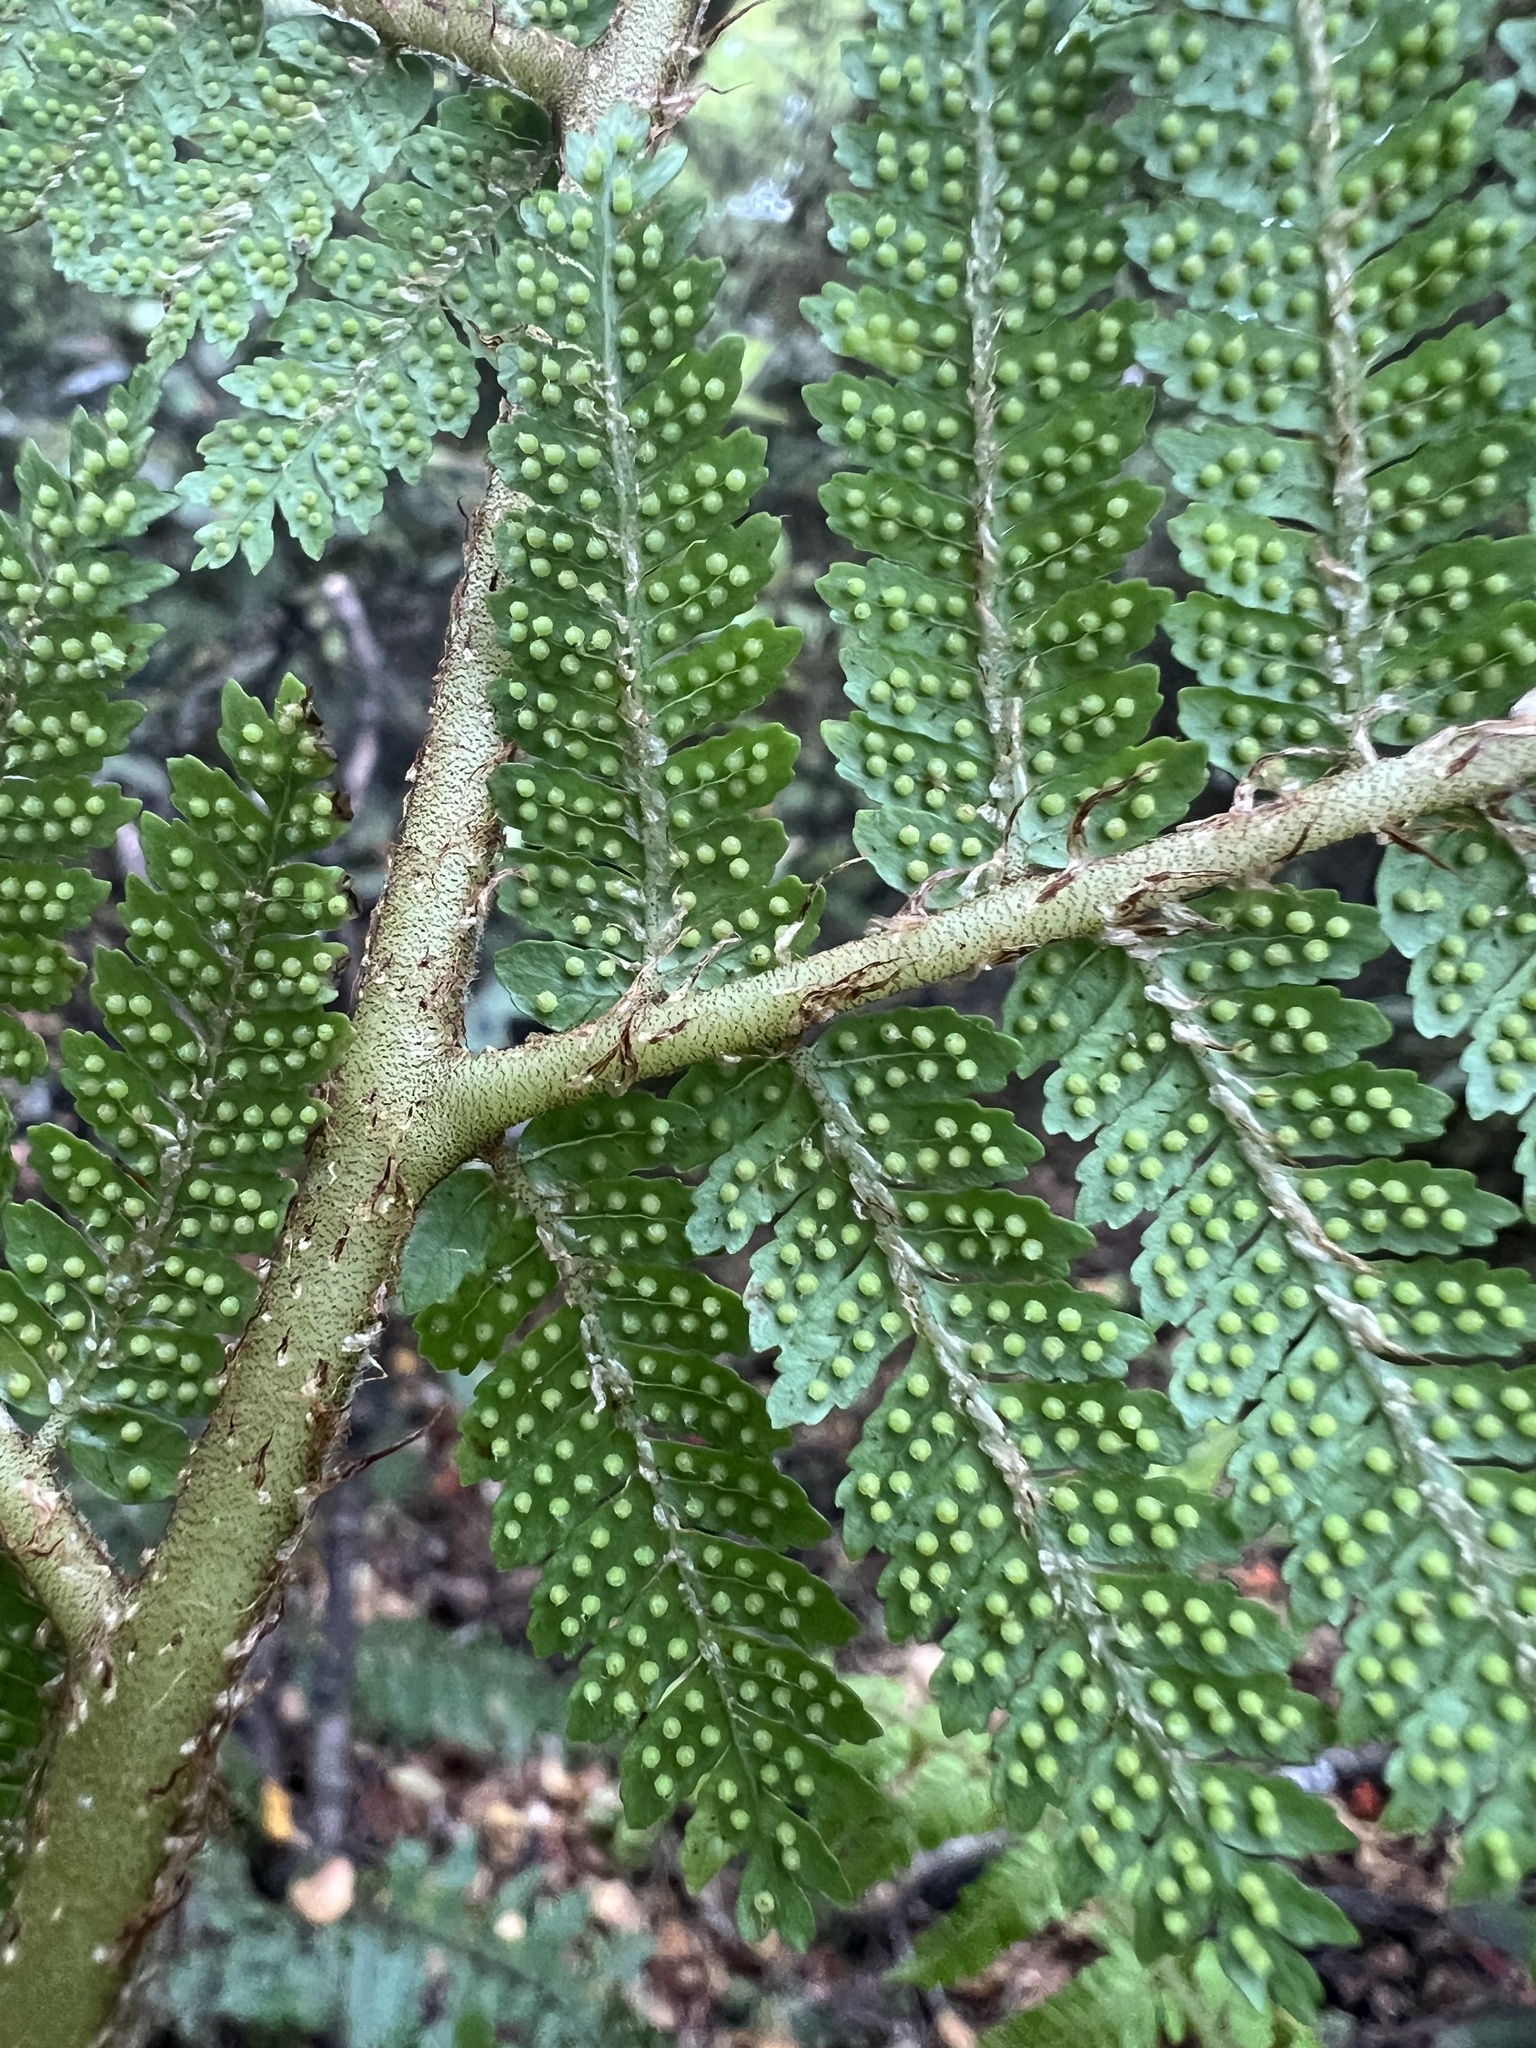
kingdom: Plantae
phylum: Tracheophyta
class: Polypodiopsida
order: Cyatheales
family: Cyatheaceae
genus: Alsophila
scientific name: Alsophila colensoi
